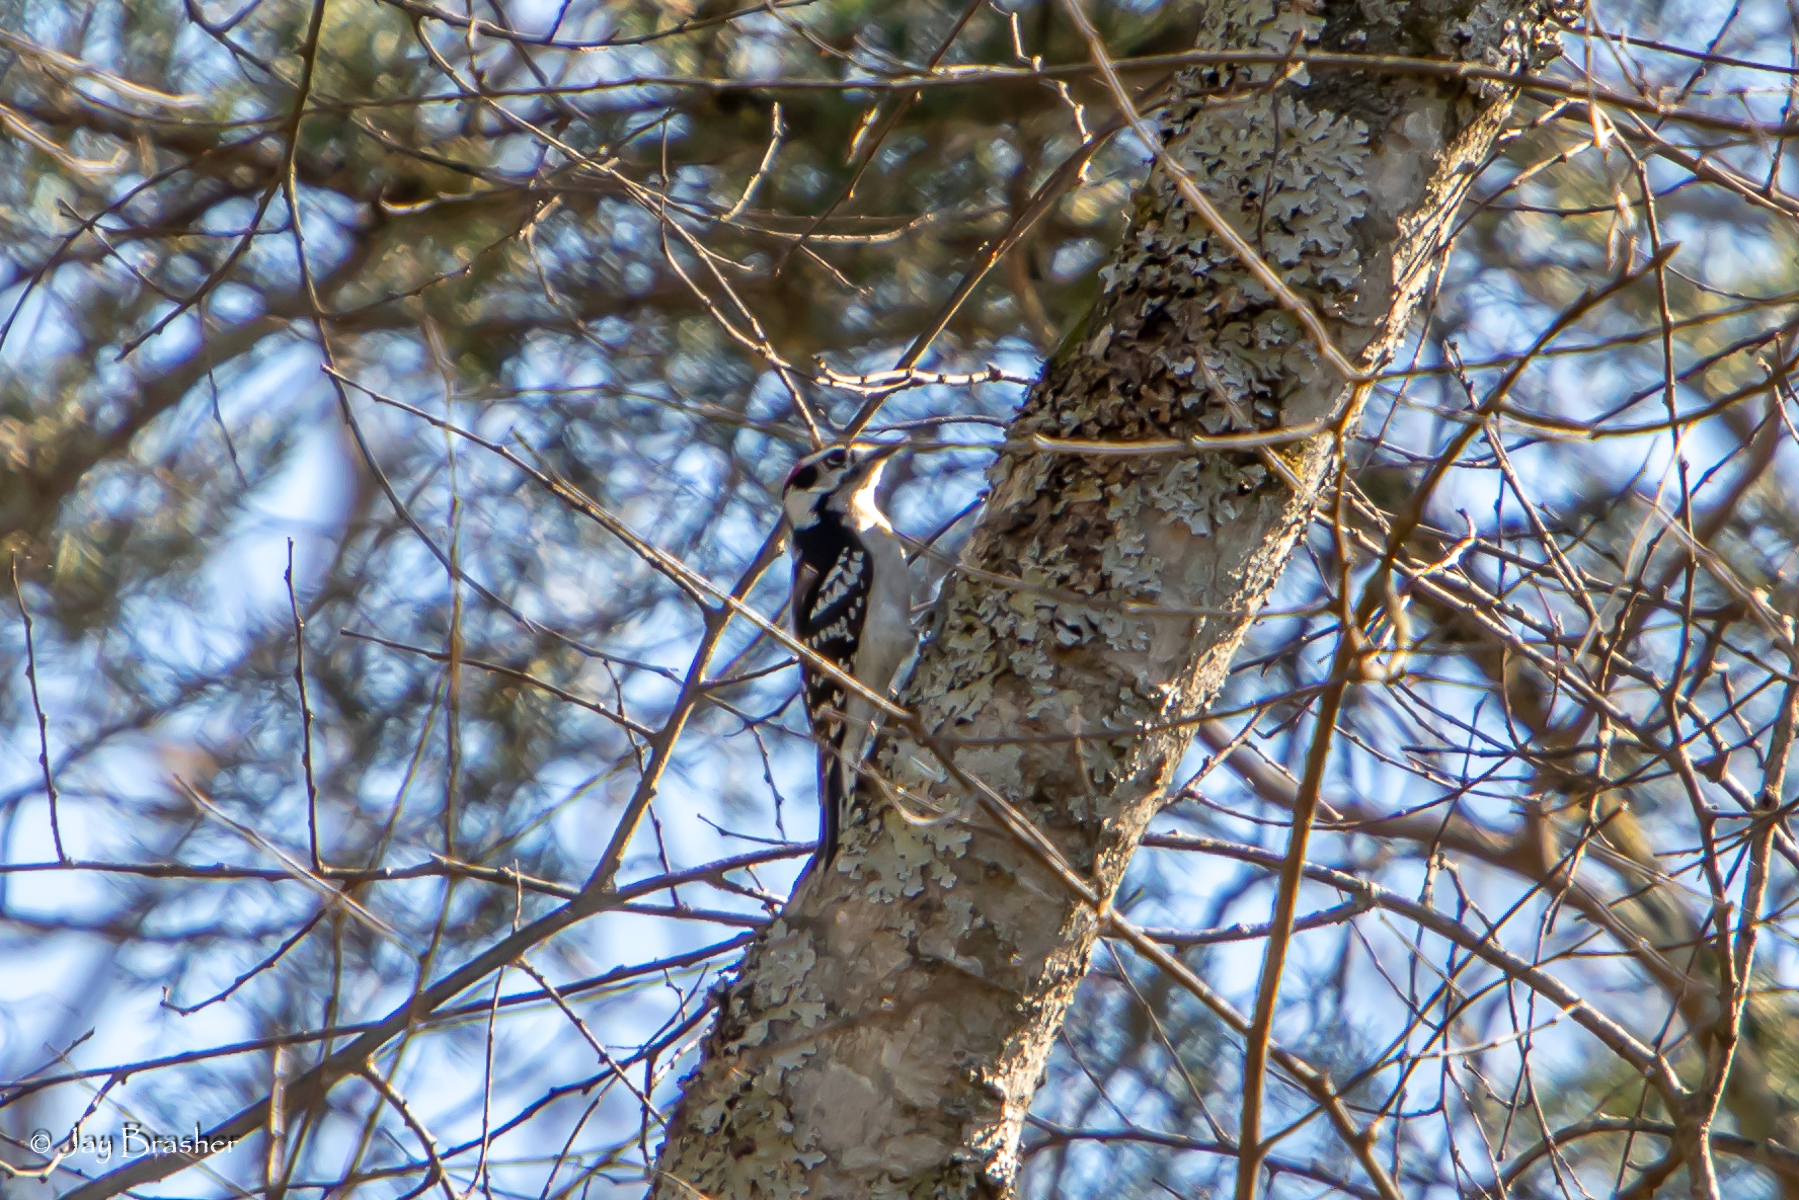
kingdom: Animalia
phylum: Chordata
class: Aves
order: Piciformes
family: Picidae
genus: Dryobates
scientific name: Dryobates pubescens
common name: Downy woodpecker
